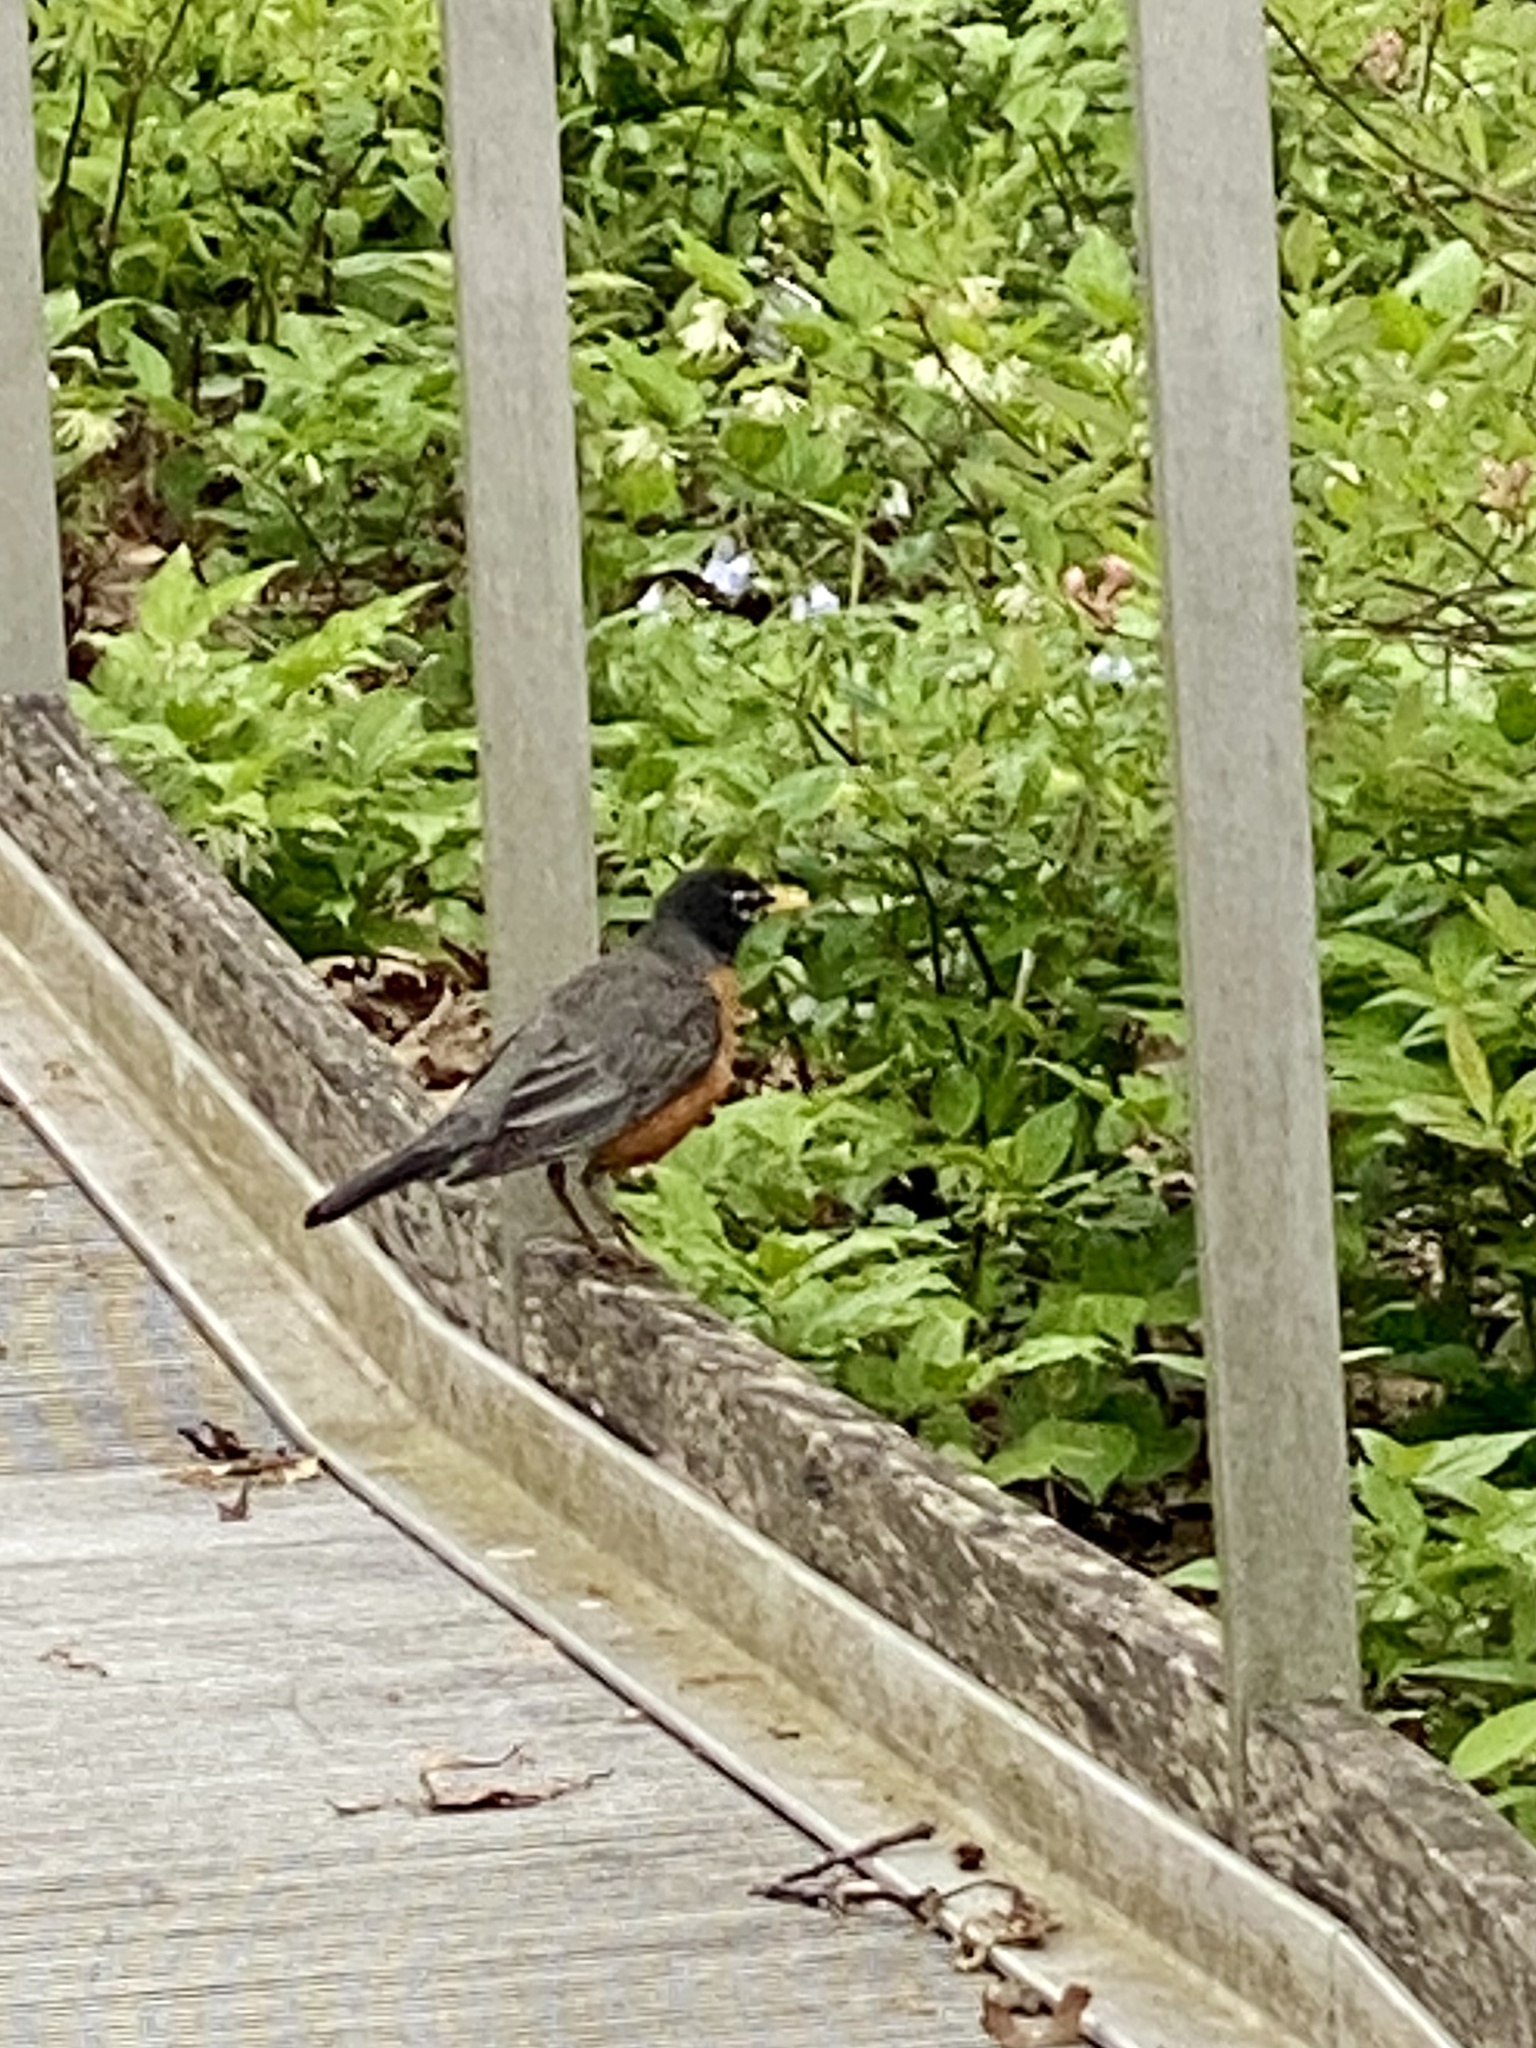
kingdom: Animalia
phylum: Chordata
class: Aves
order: Passeriformes
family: Turdidae
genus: Turdus
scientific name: Turdus migratorius
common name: American robin
